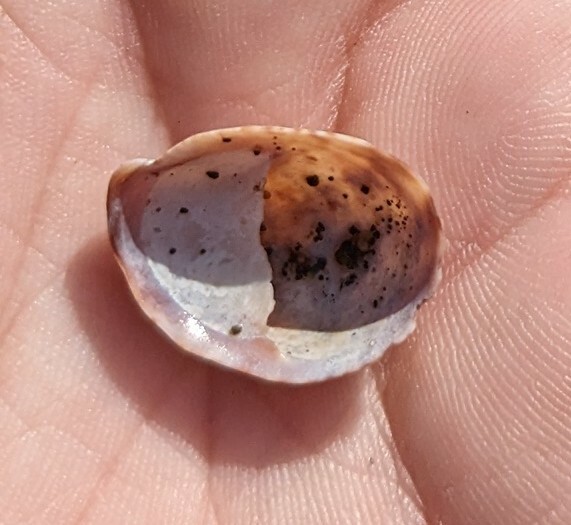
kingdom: Animalia
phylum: Mollusca
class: Gastropoda
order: Littorinimorpha
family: Calyptraeidae
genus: Crepidula
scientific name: Crepidula fornicata
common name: Slipper limpet
